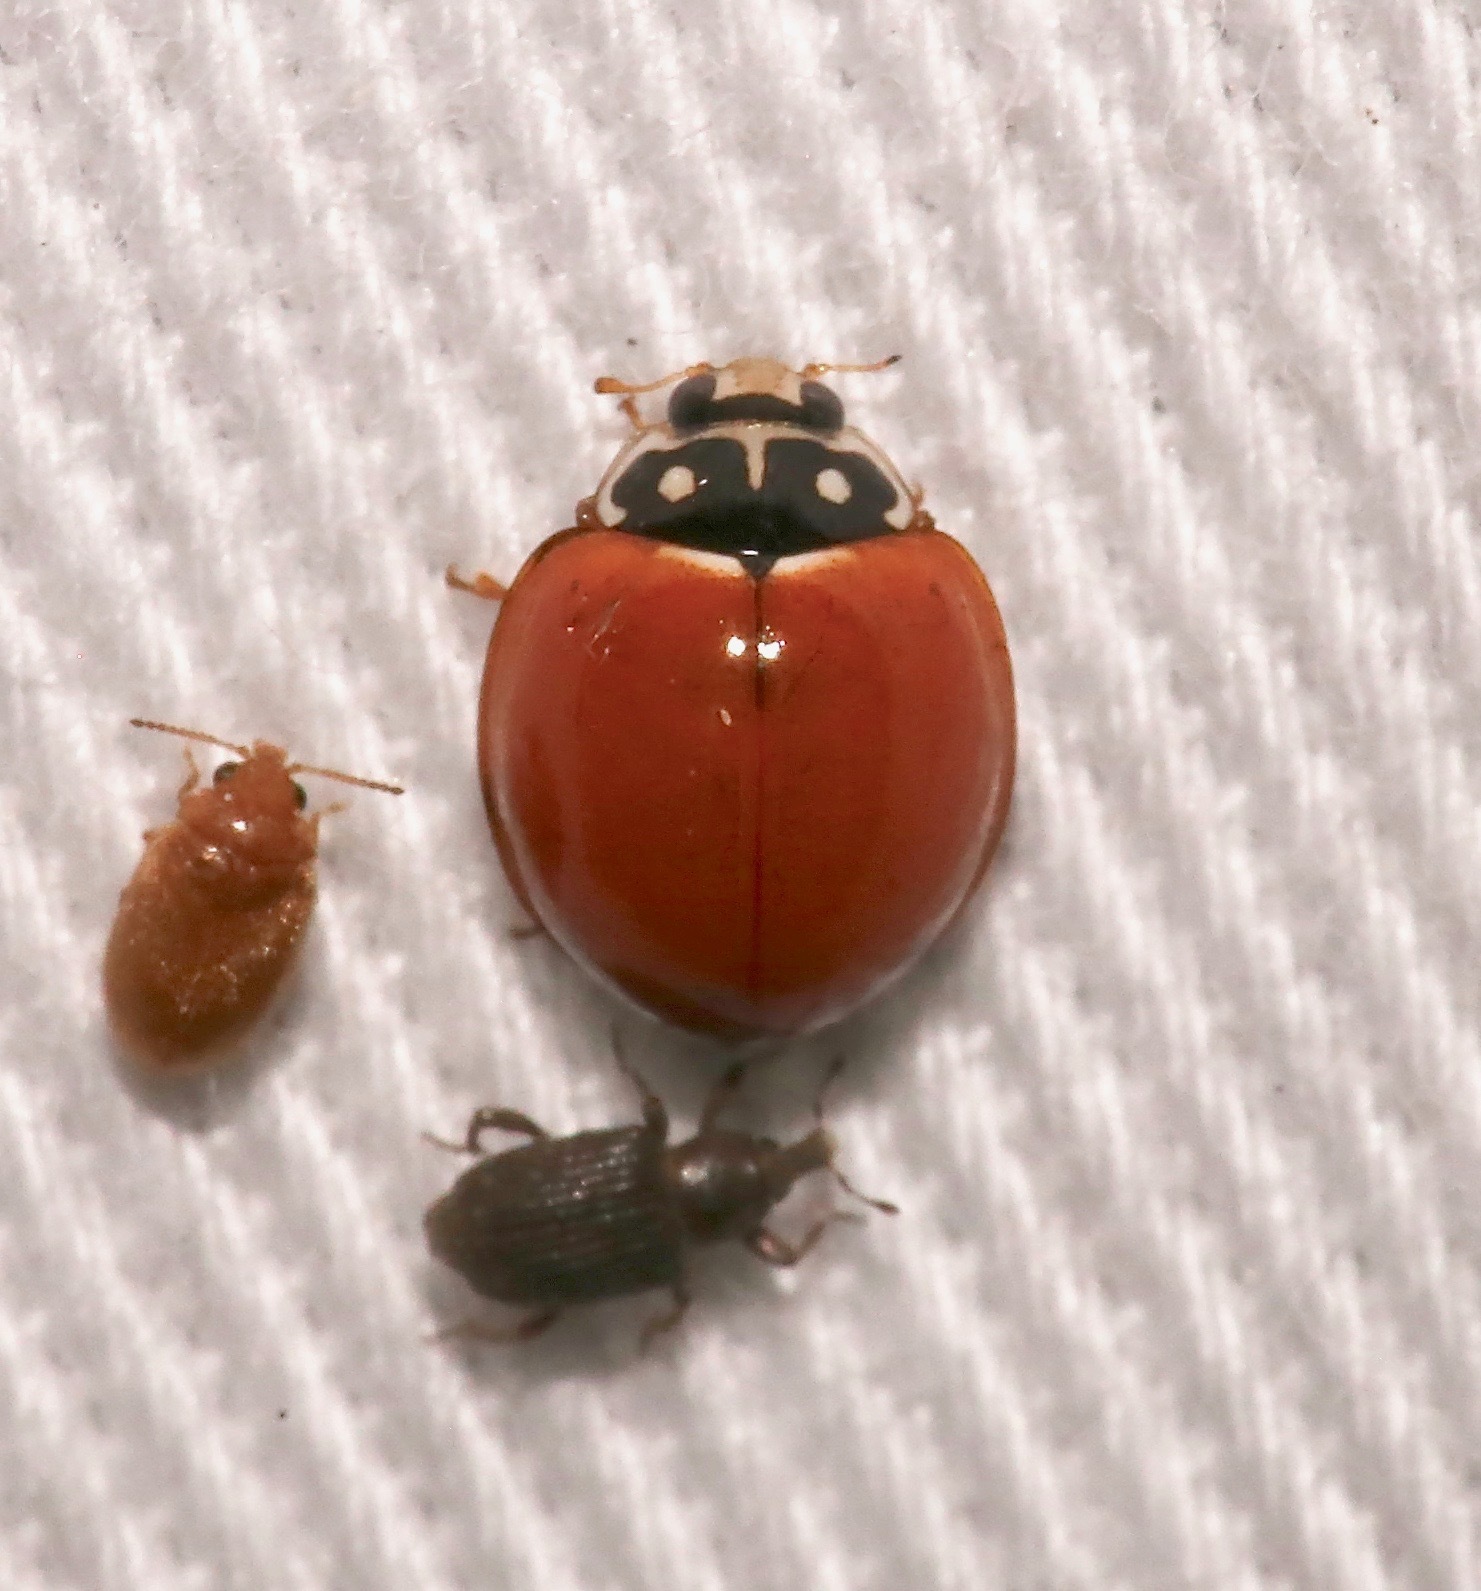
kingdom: Animalia
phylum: Arthropoda
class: Insecta
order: Coleoptera
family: Coccinellidae
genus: Cycloneda
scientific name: Cycloneda sanguinea
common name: Ladybird beetle
